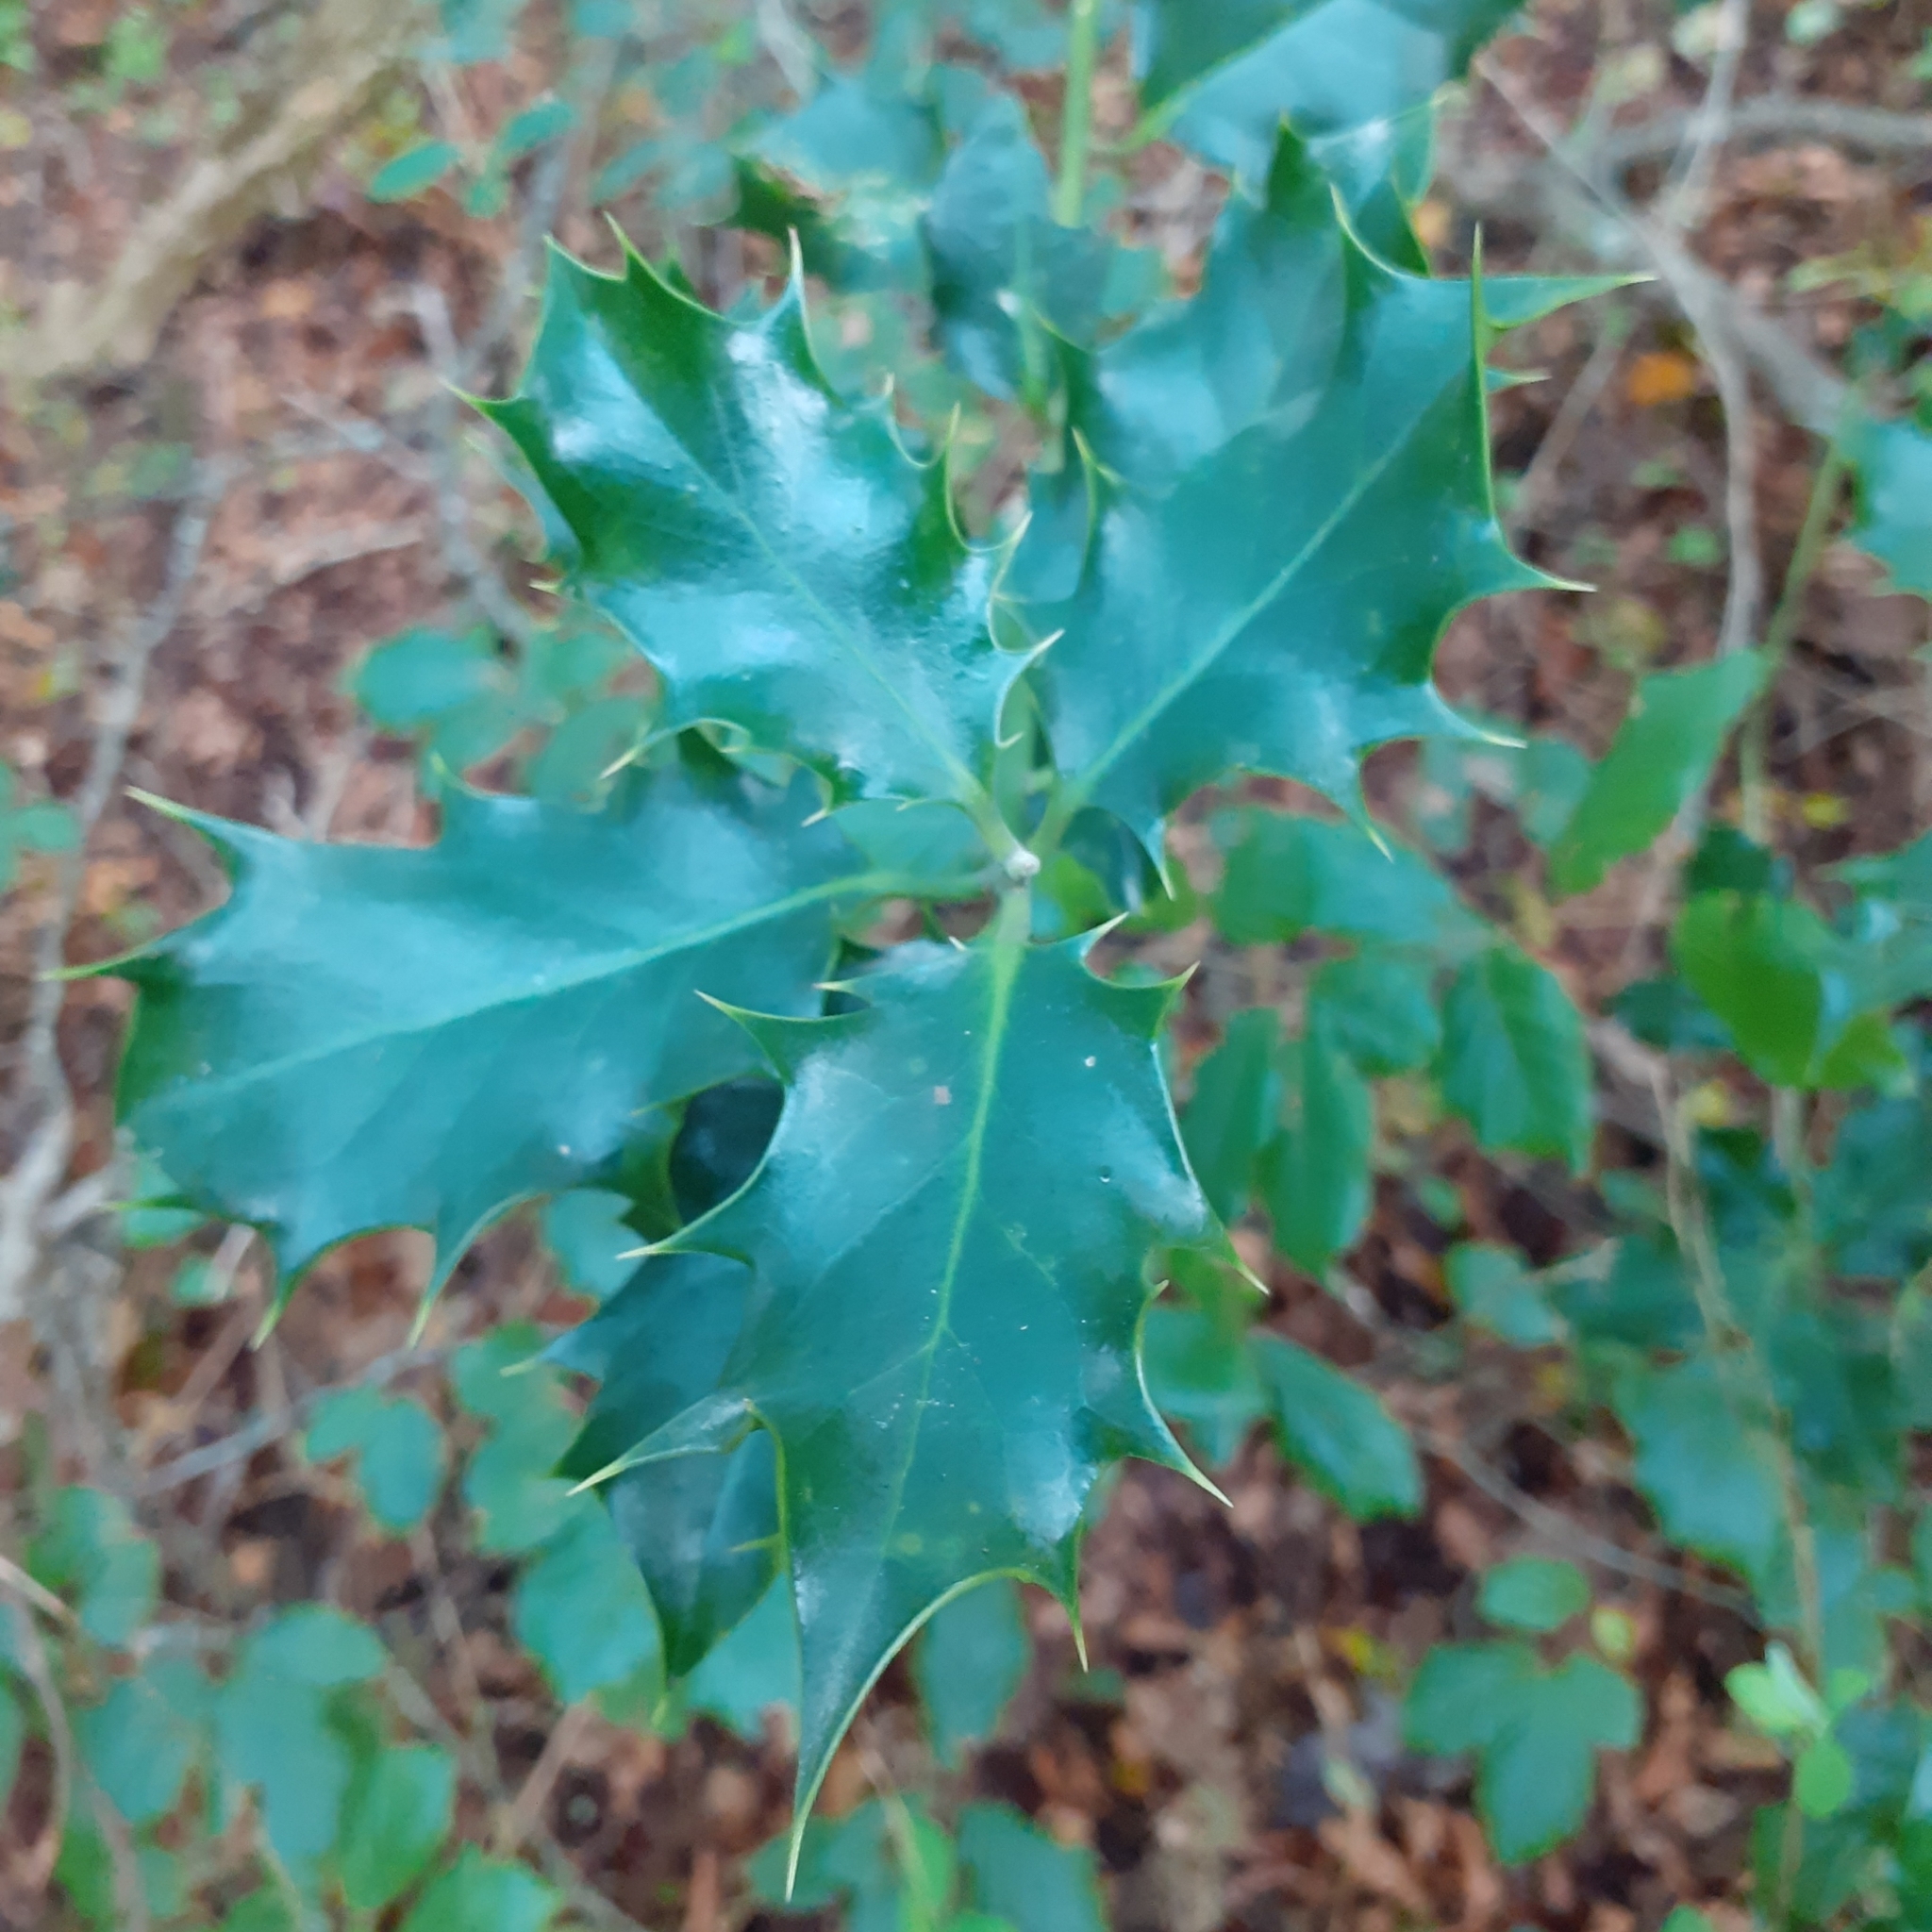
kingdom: Plantae
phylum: Tracheophyta
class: Magnoliopsida
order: Aquifoliales
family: Aquifoliaceae
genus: Ilex
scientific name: Ilex aquifolium
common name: English holly
